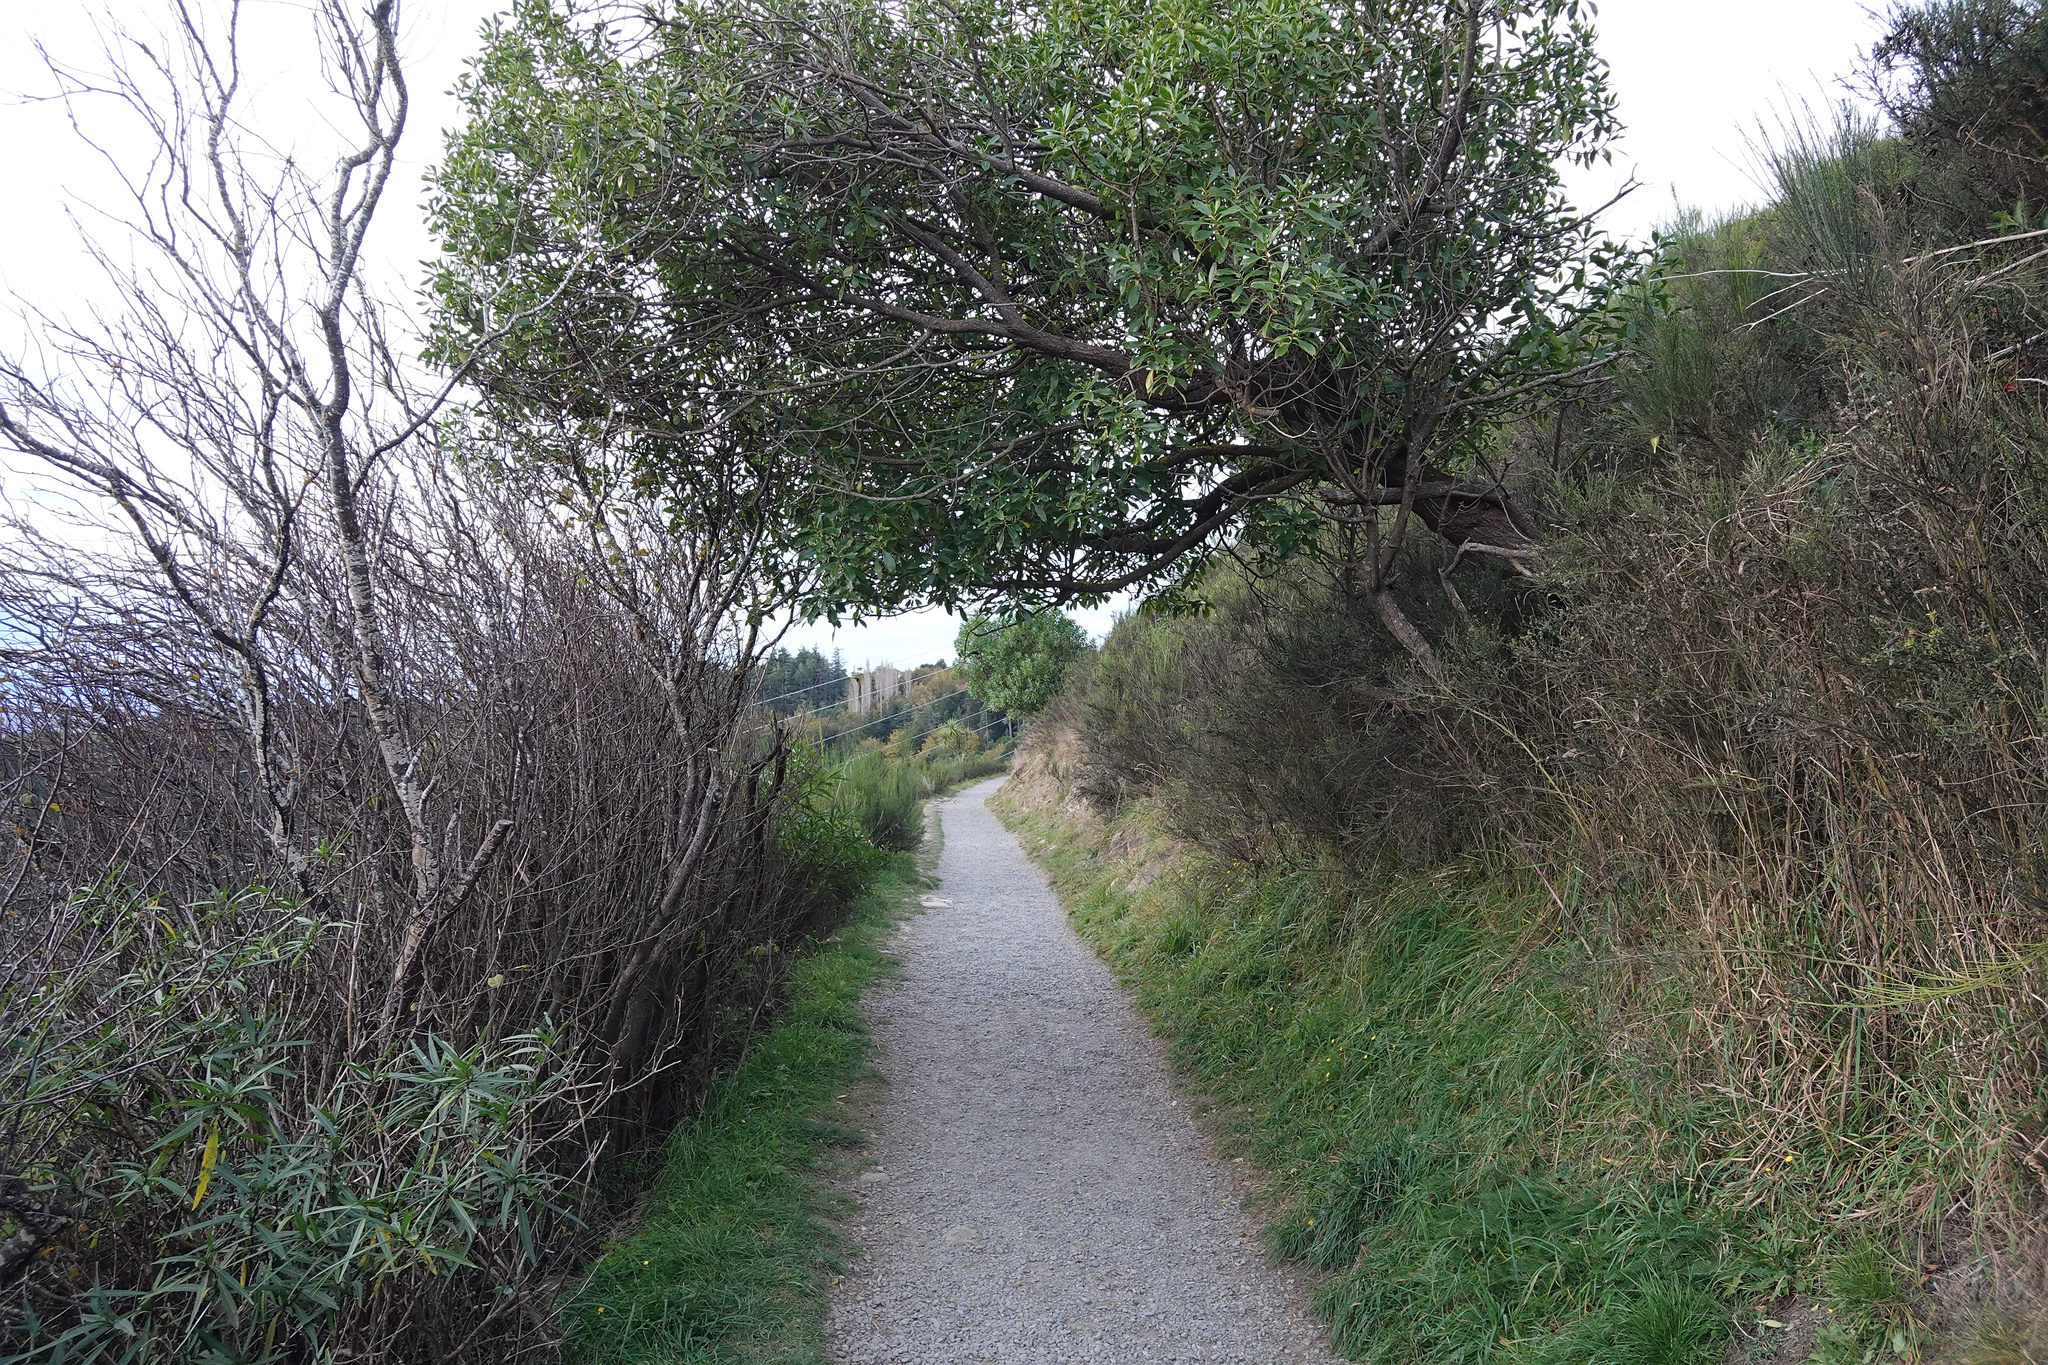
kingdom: Plantae
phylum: Tracheophyta
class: Magnoliopsida
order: Lamiales
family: Scrophulariaceae
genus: Myoporum
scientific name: Myoporum laetum
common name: Ngaio tree
